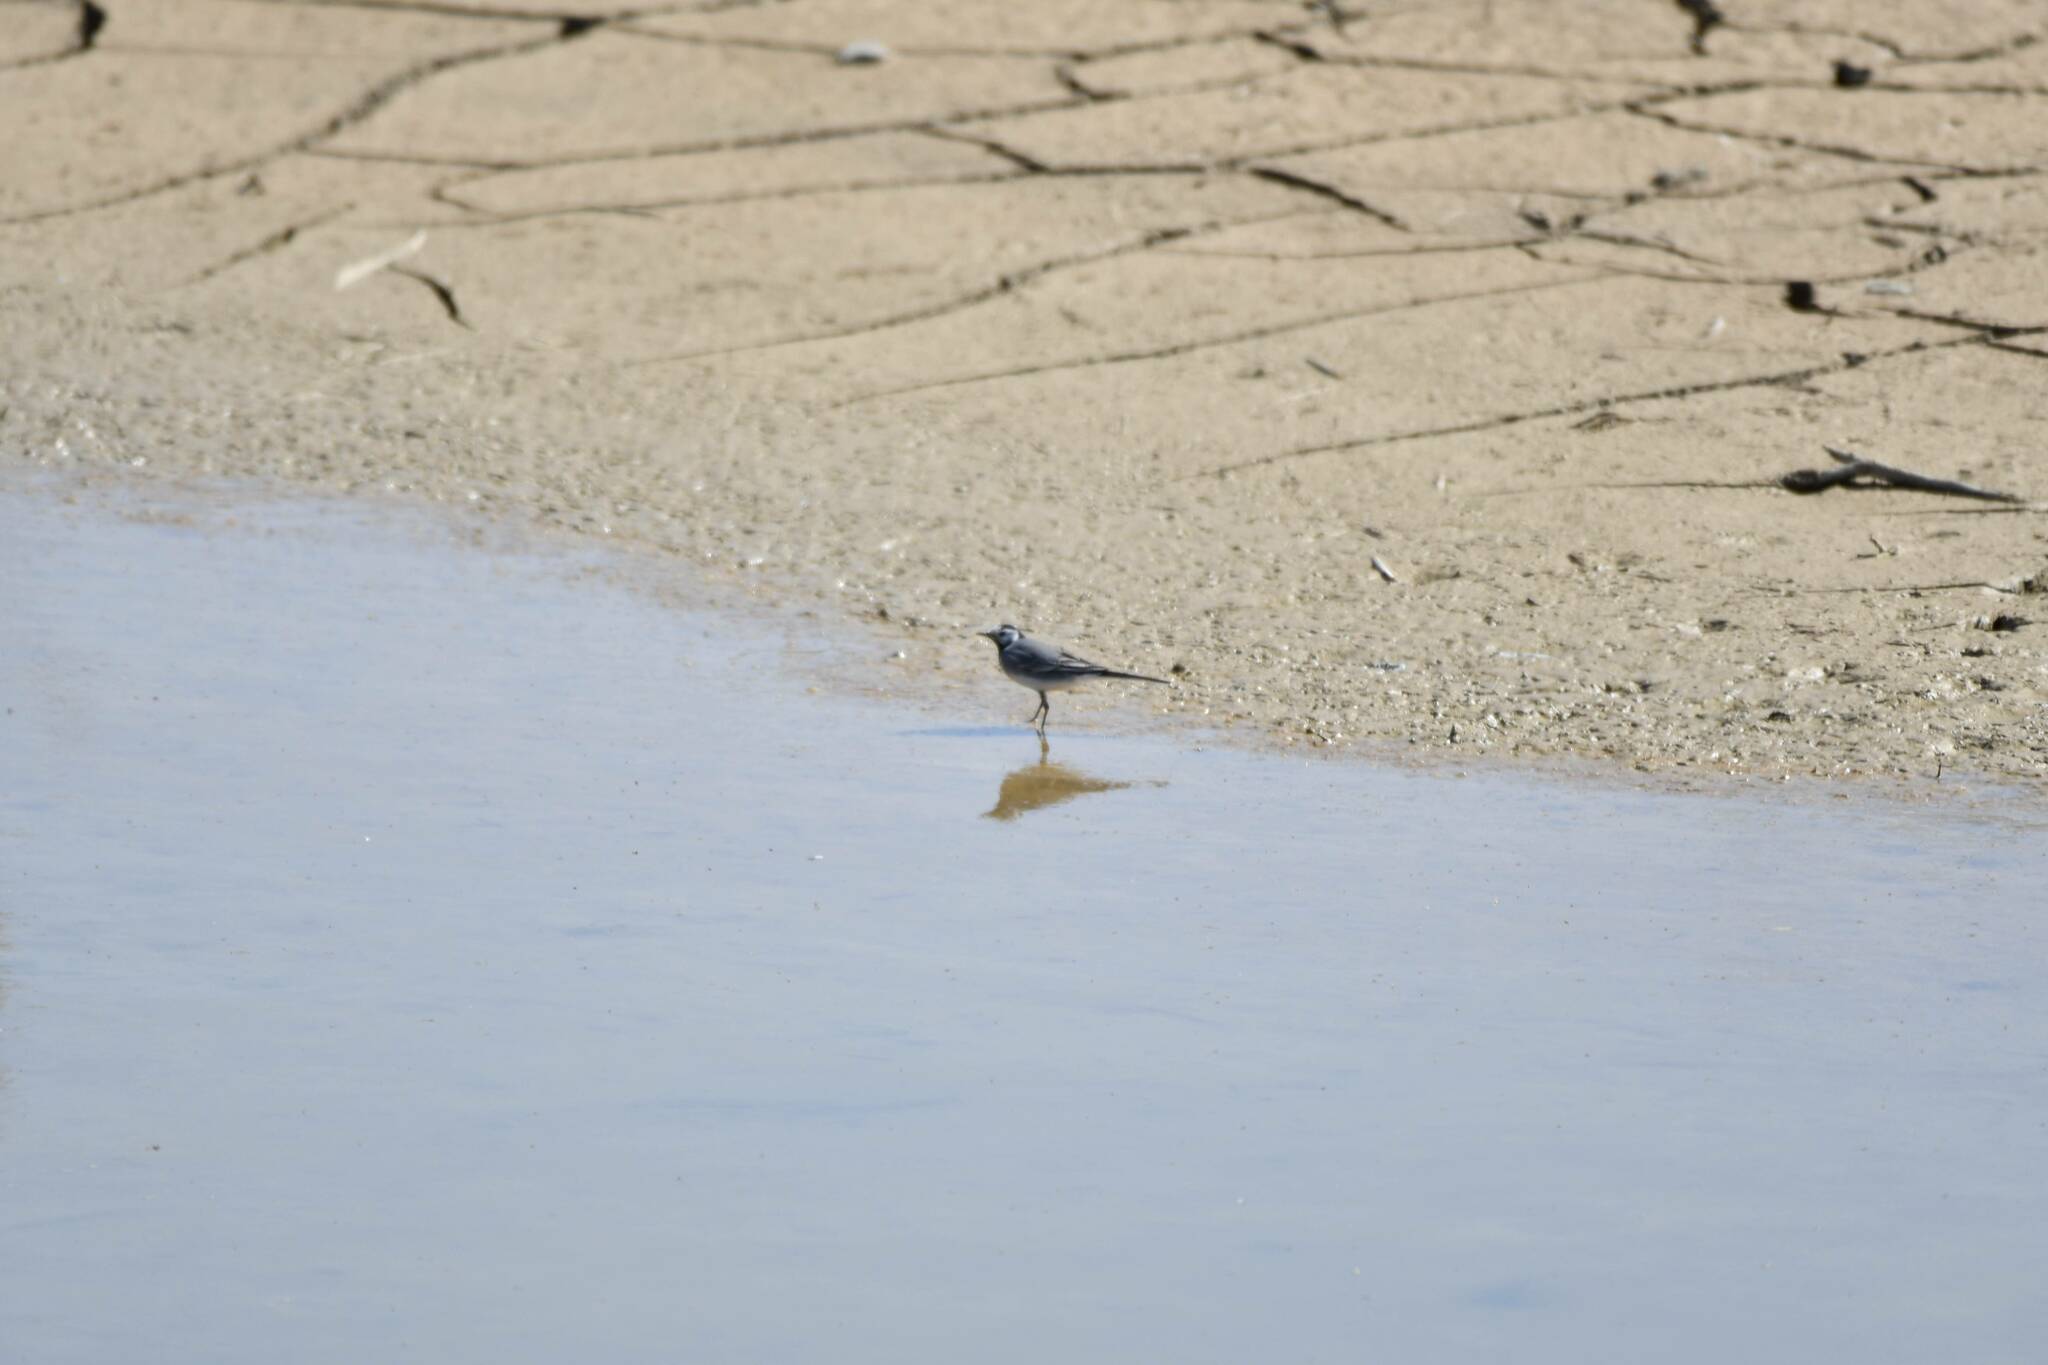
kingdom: Animalia
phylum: Chordata
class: Aves
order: Passeriformes
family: Motacillidae
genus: Motacilla
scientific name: Motacilla alba
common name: White wagtail
